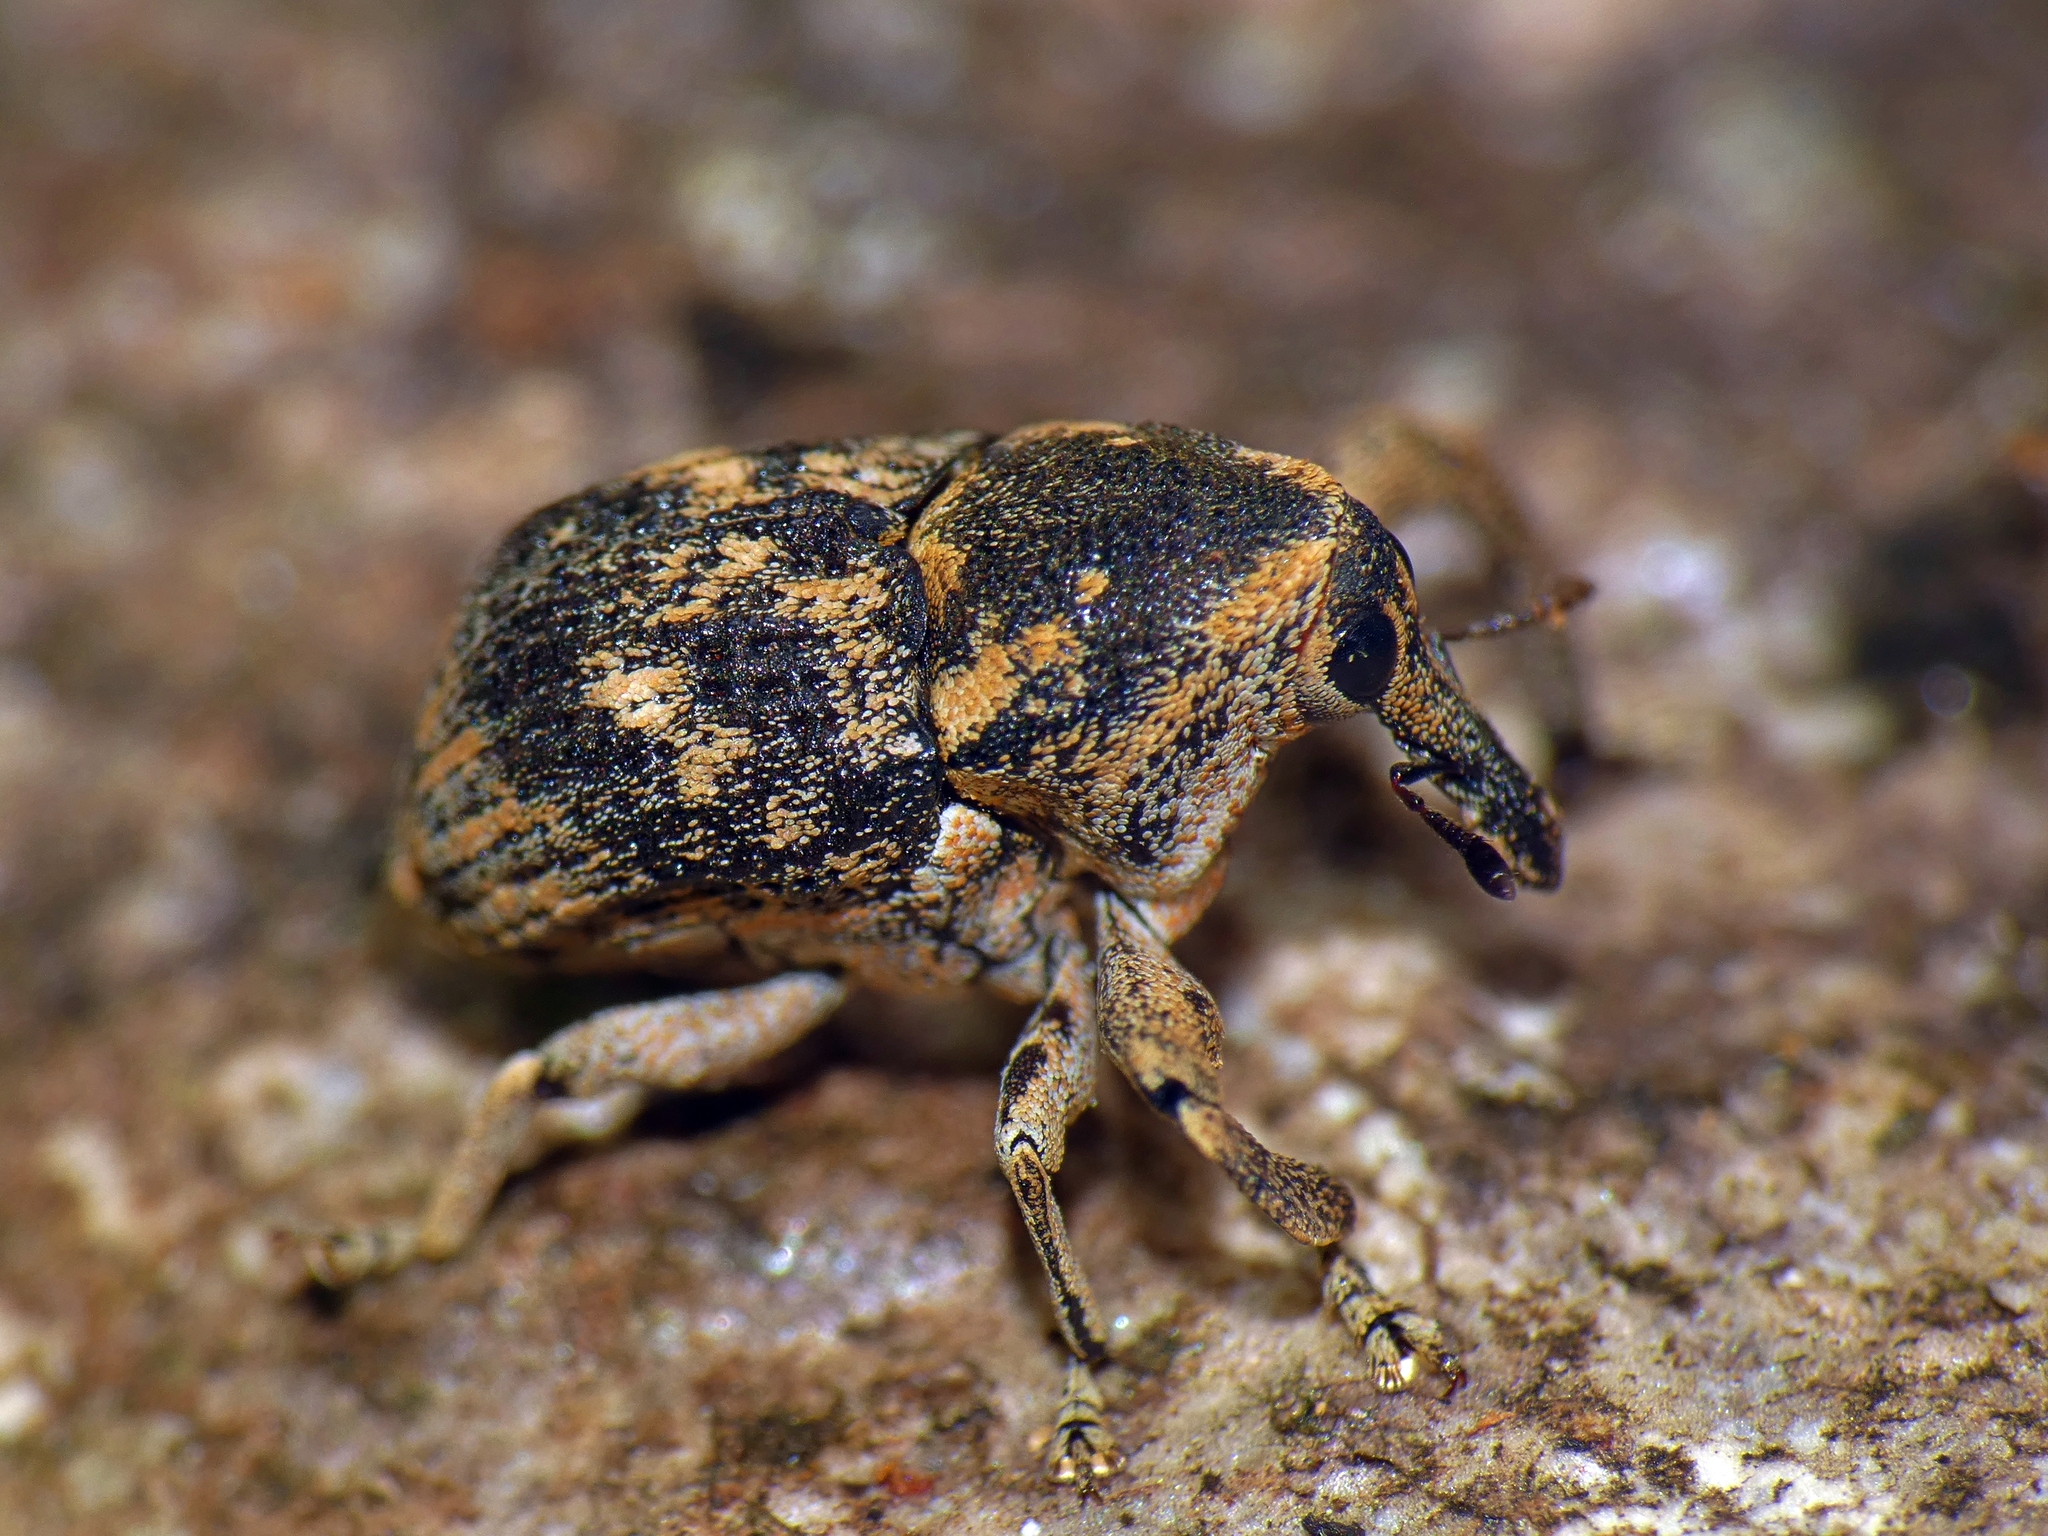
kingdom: Animalia
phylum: Arthropoda
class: Insecta
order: Coleoptera
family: Curculionidae
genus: Eutyrhinus
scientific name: Eutyrhinus meditabundus
